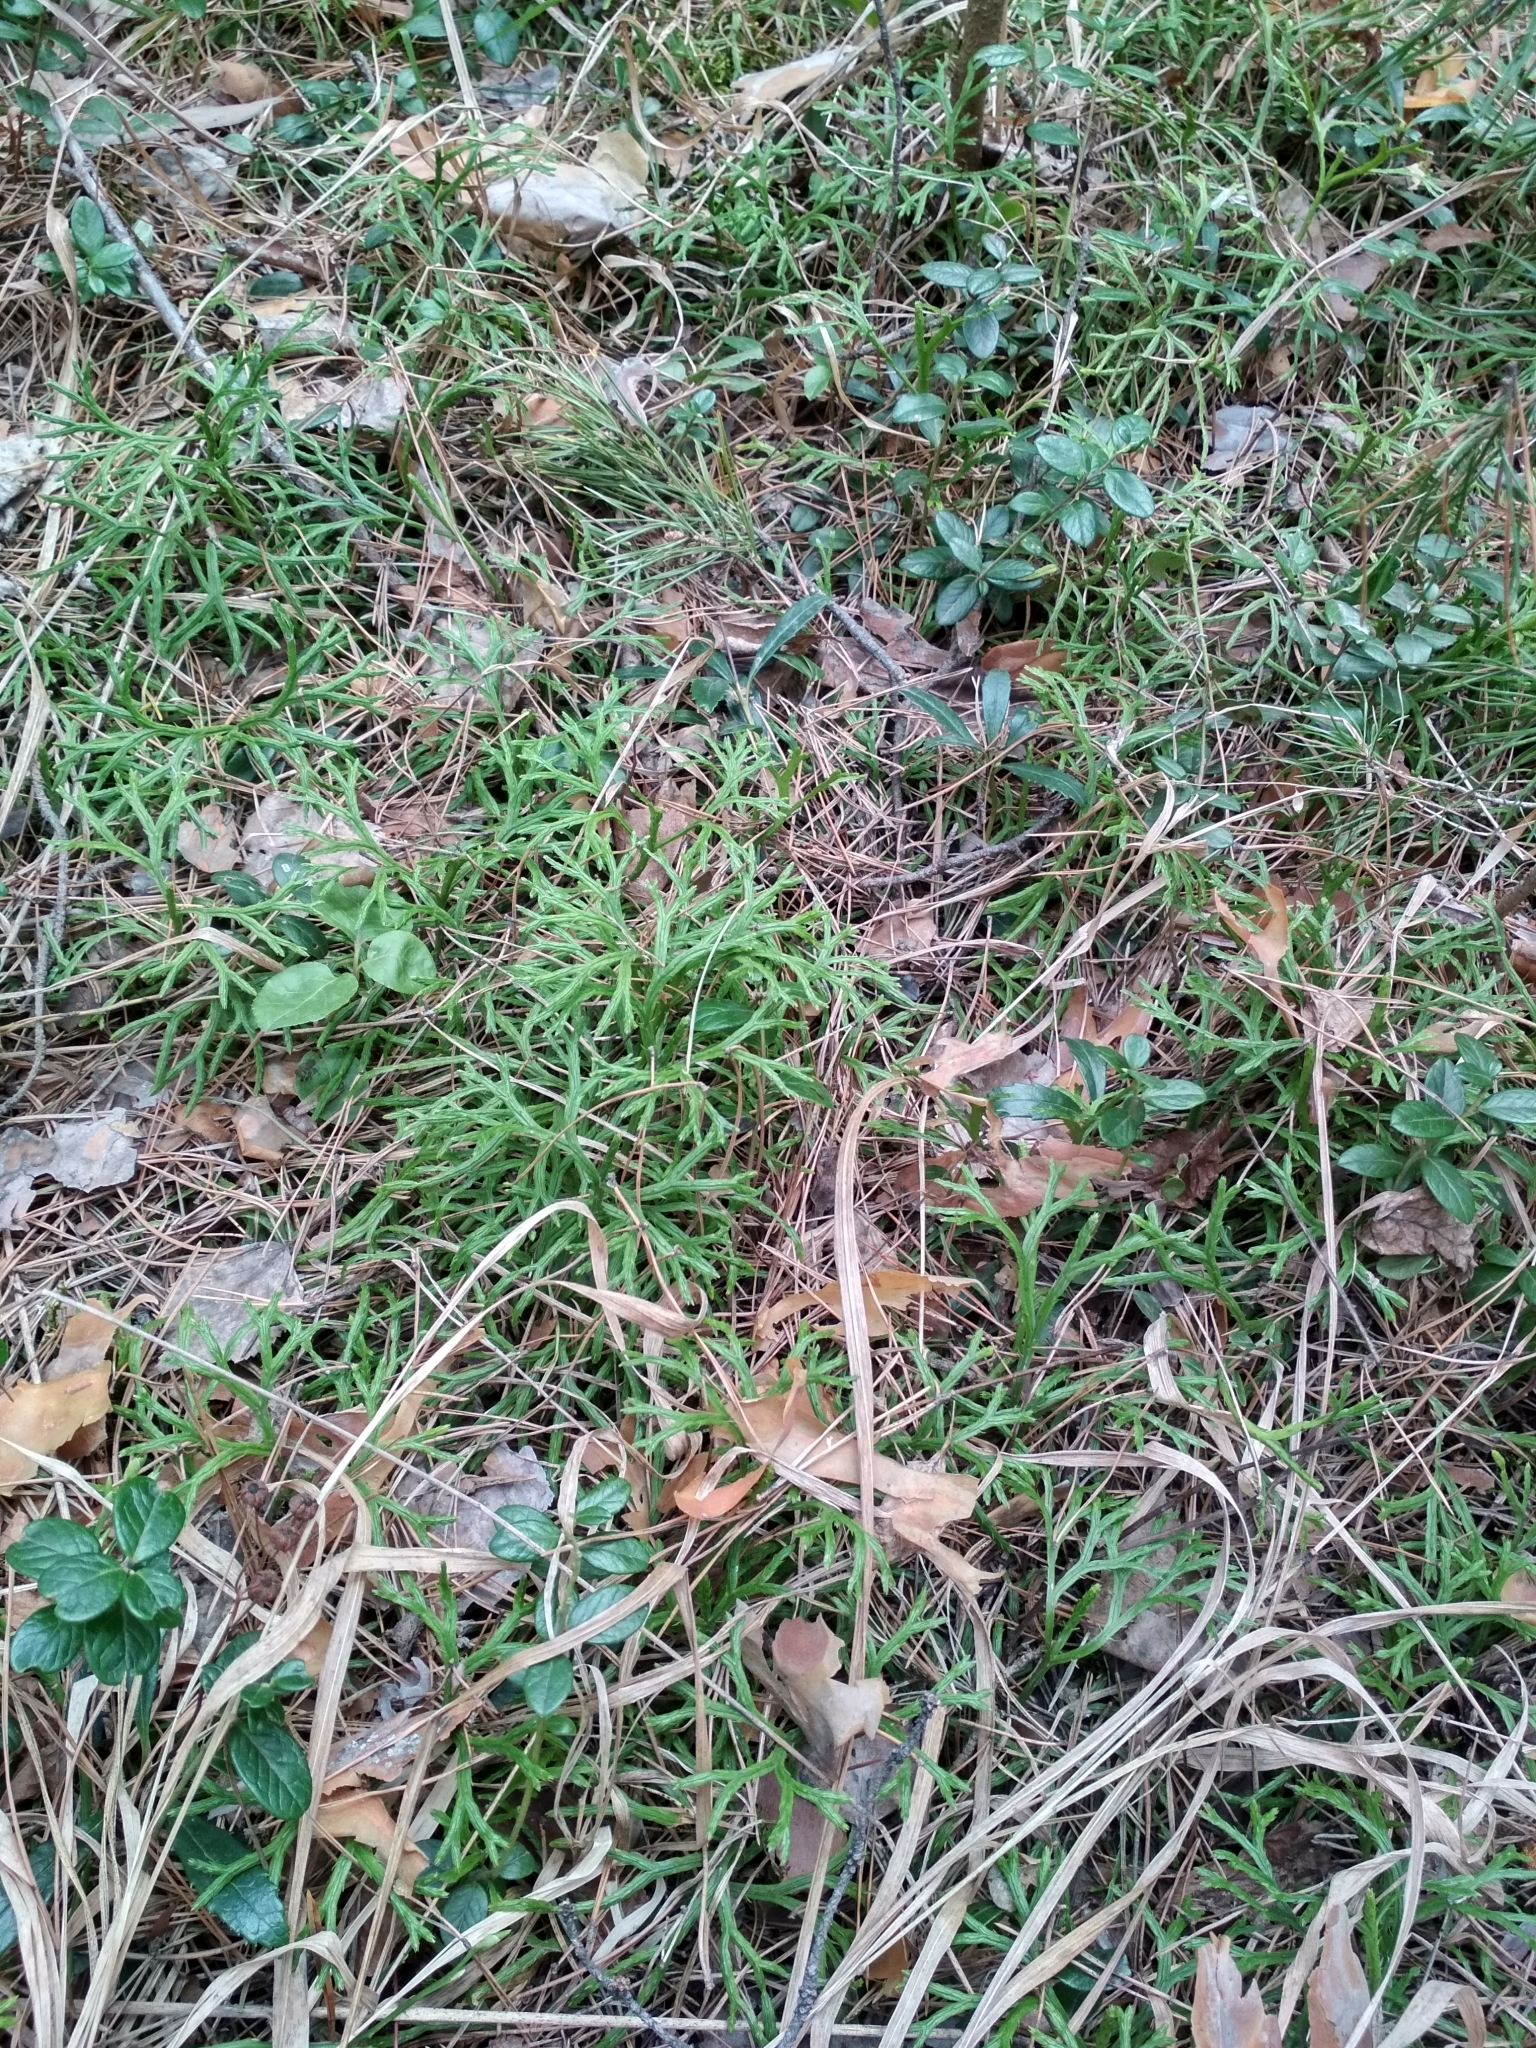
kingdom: Plantae
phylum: Tracheophyta
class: Lycopodiopsida
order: Lycopodiales
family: Lycopodiaceae
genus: Diphasiastrum
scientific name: Diphasiastrum complanatum
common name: Northern running-pine
